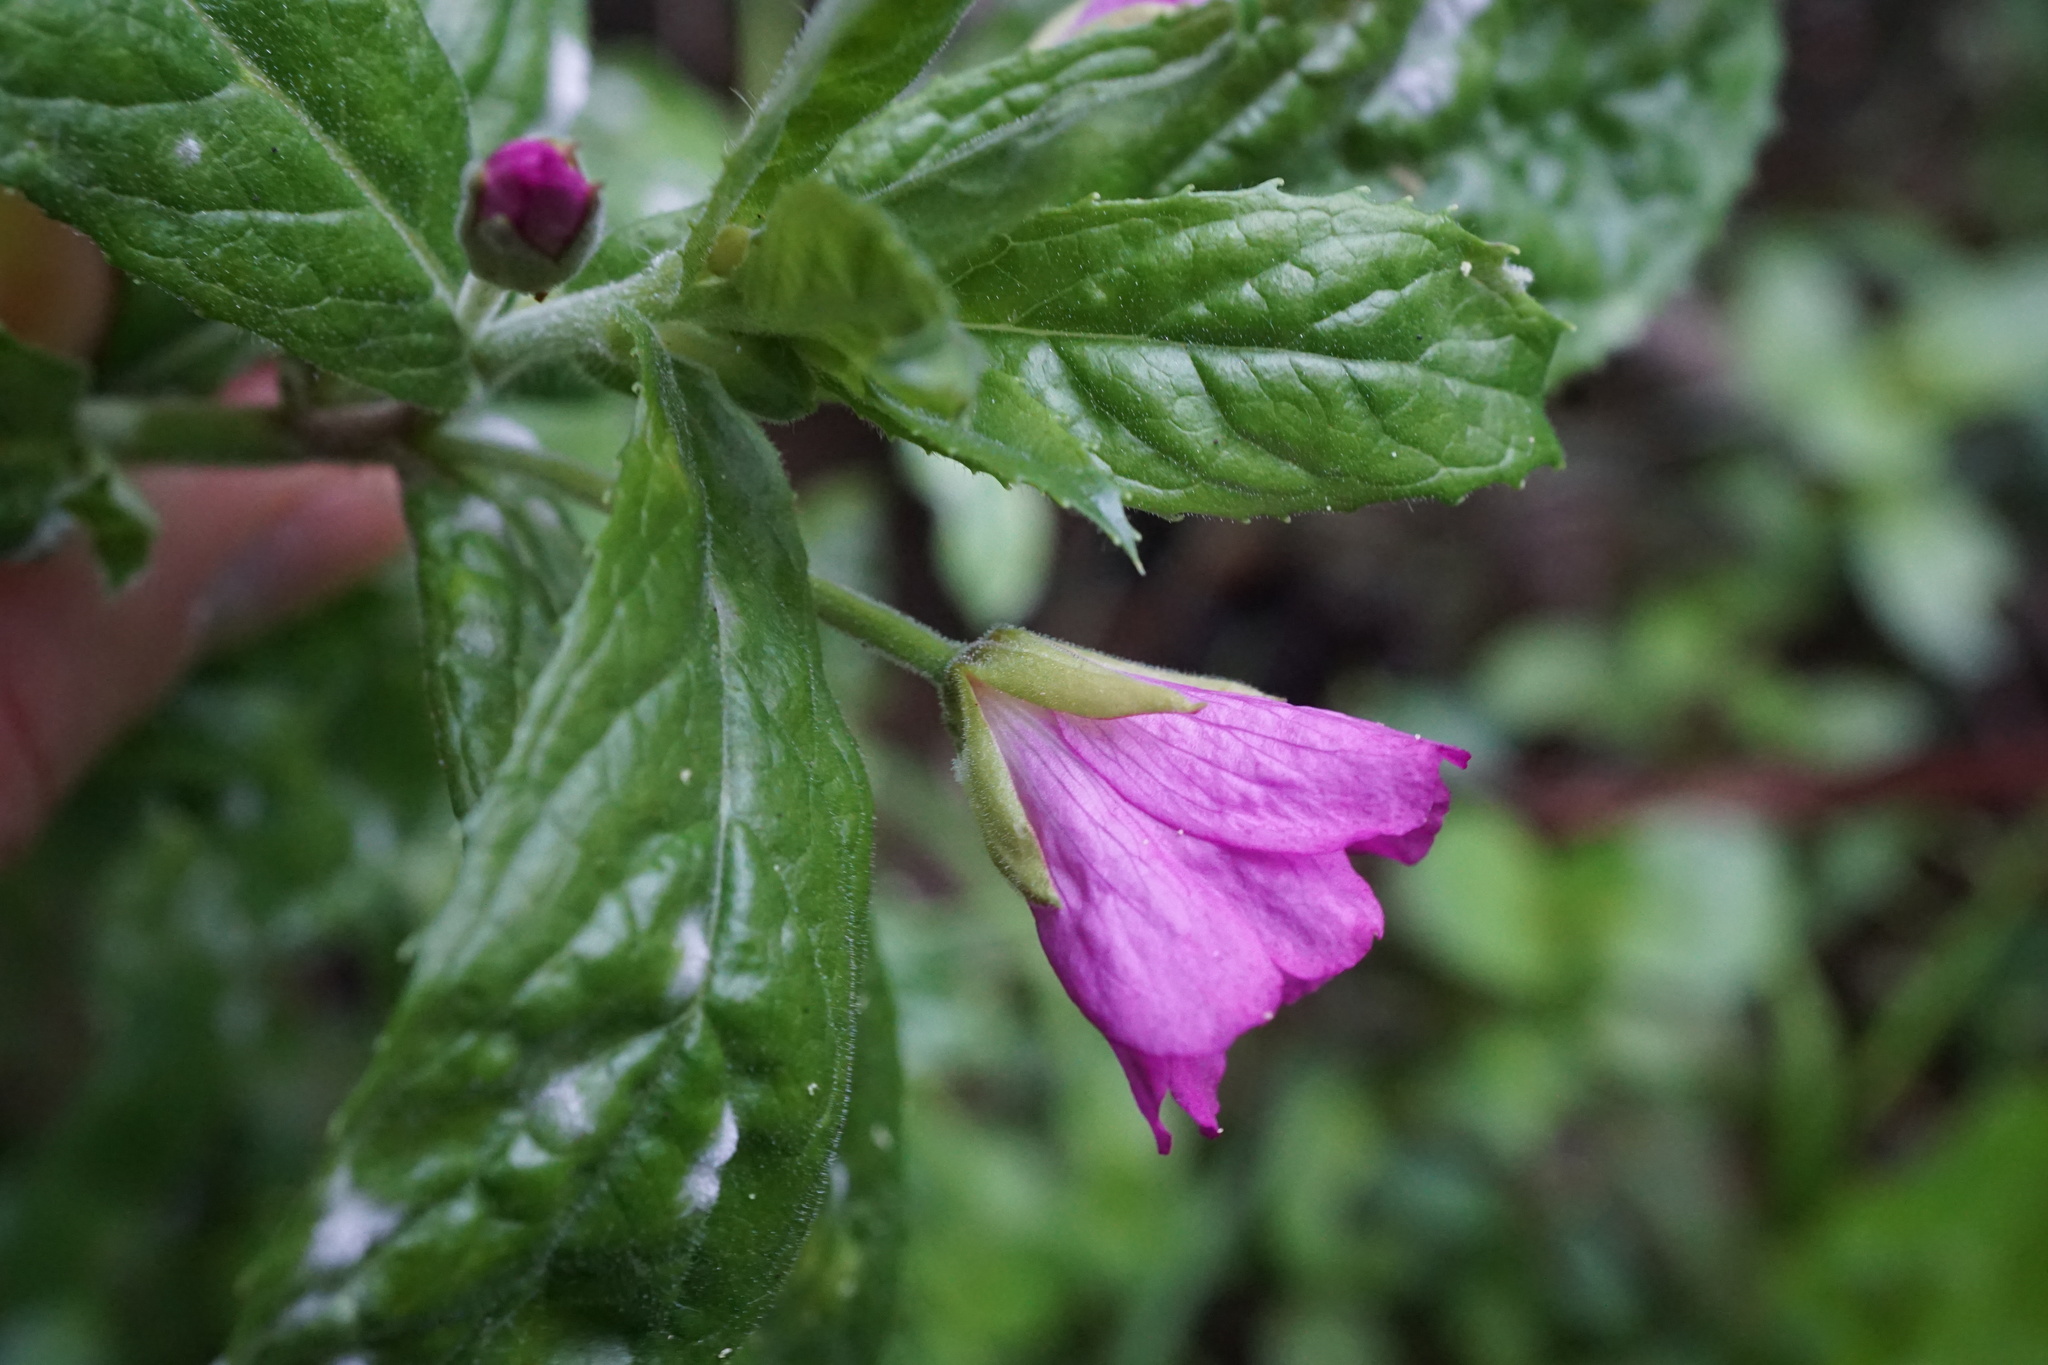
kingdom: Plantae
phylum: Tracheophyta
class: Magnoliopsida
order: Myrtales
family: Onagraceae
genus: Epilobium
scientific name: Epilobium hirsutum
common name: Great willowherb
